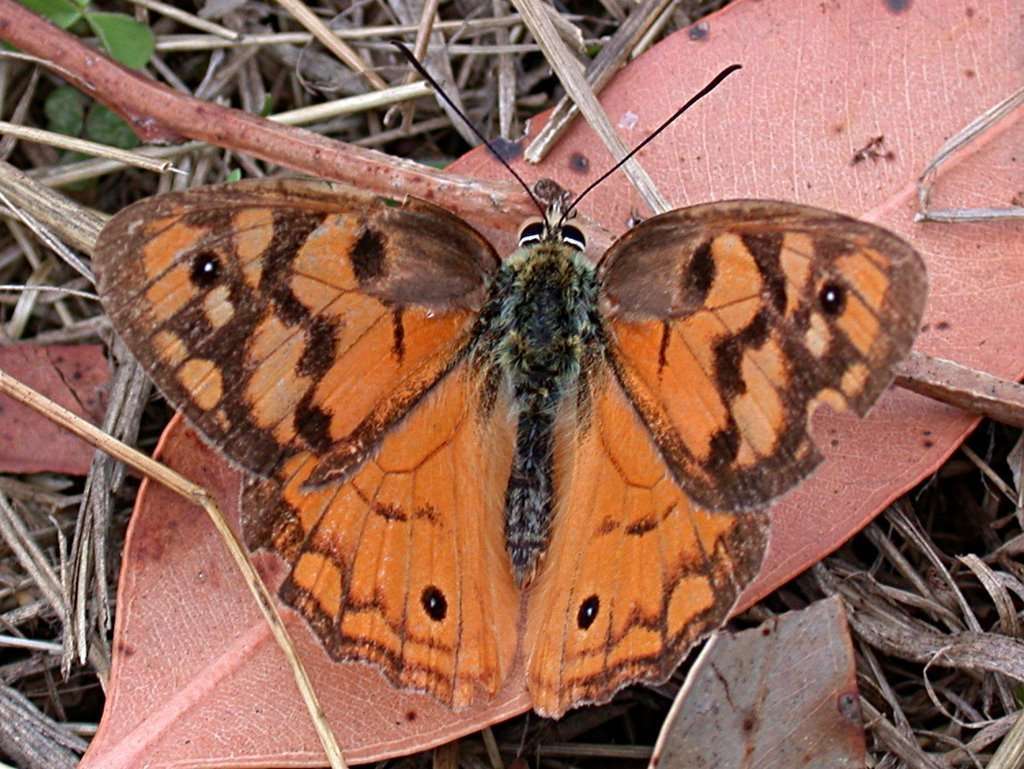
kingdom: Animalia
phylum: Arthropoda
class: Insecta
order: Lepidoptera
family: Nymphalidae
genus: Heteronympha
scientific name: Heteronympha penelope
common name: Shouldered brown
